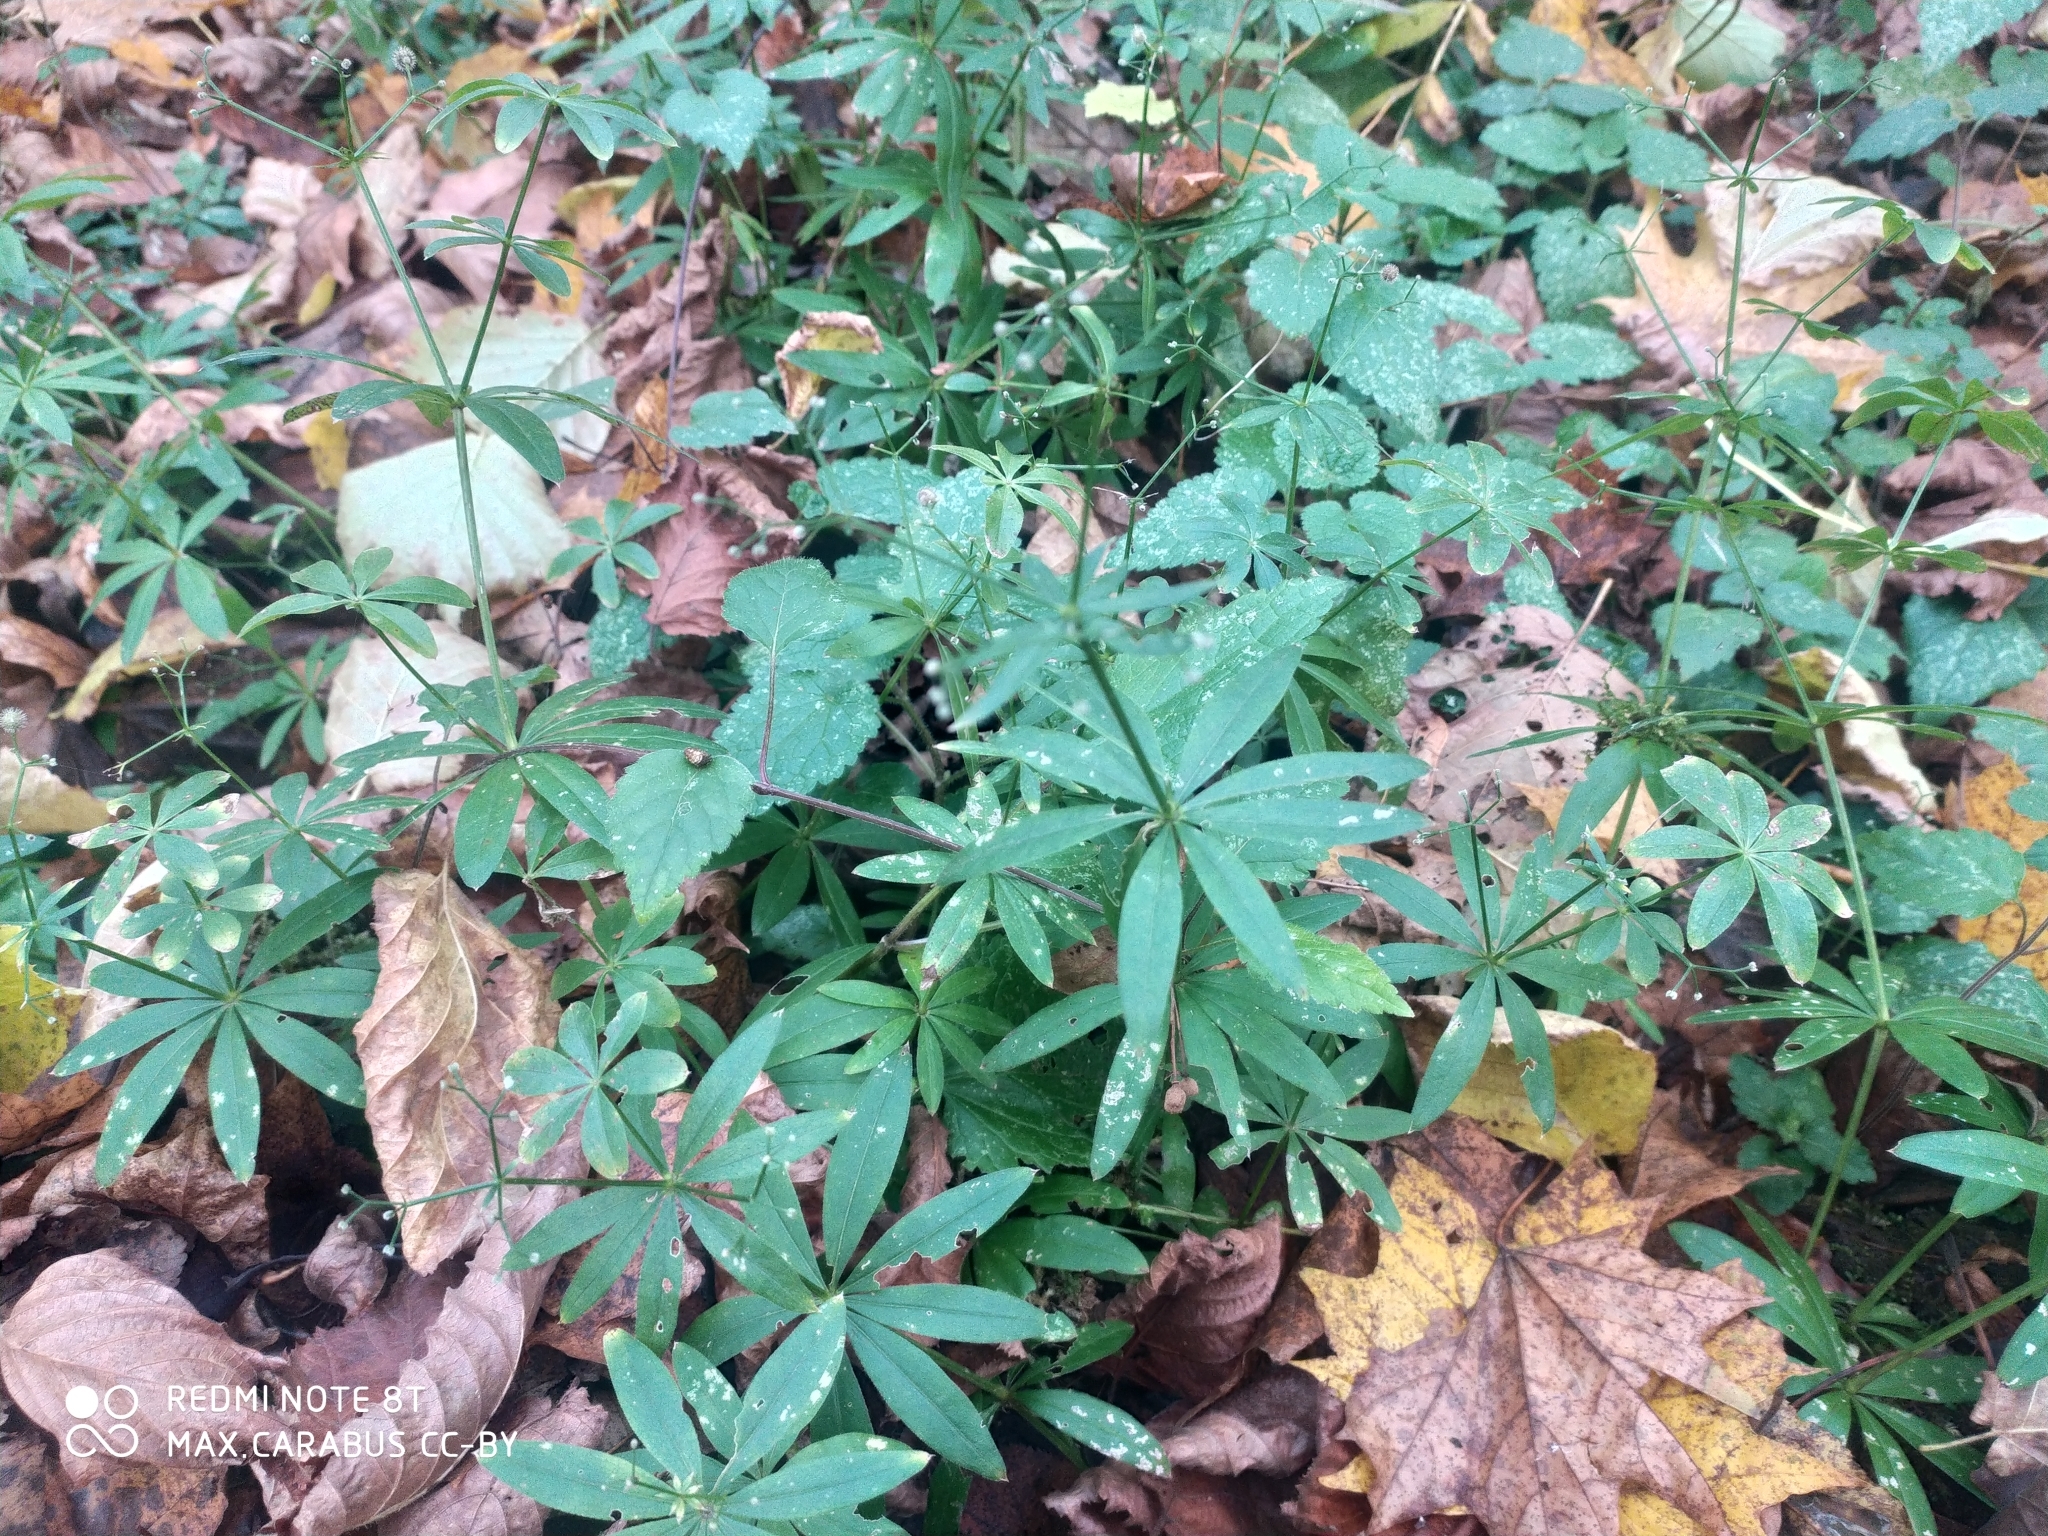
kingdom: Plantae
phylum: Tracheophyta
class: Magnoliopsida
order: Gentianales
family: Rubiaceae
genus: Galium
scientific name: Galium odoratum
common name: Sweet woodruff
